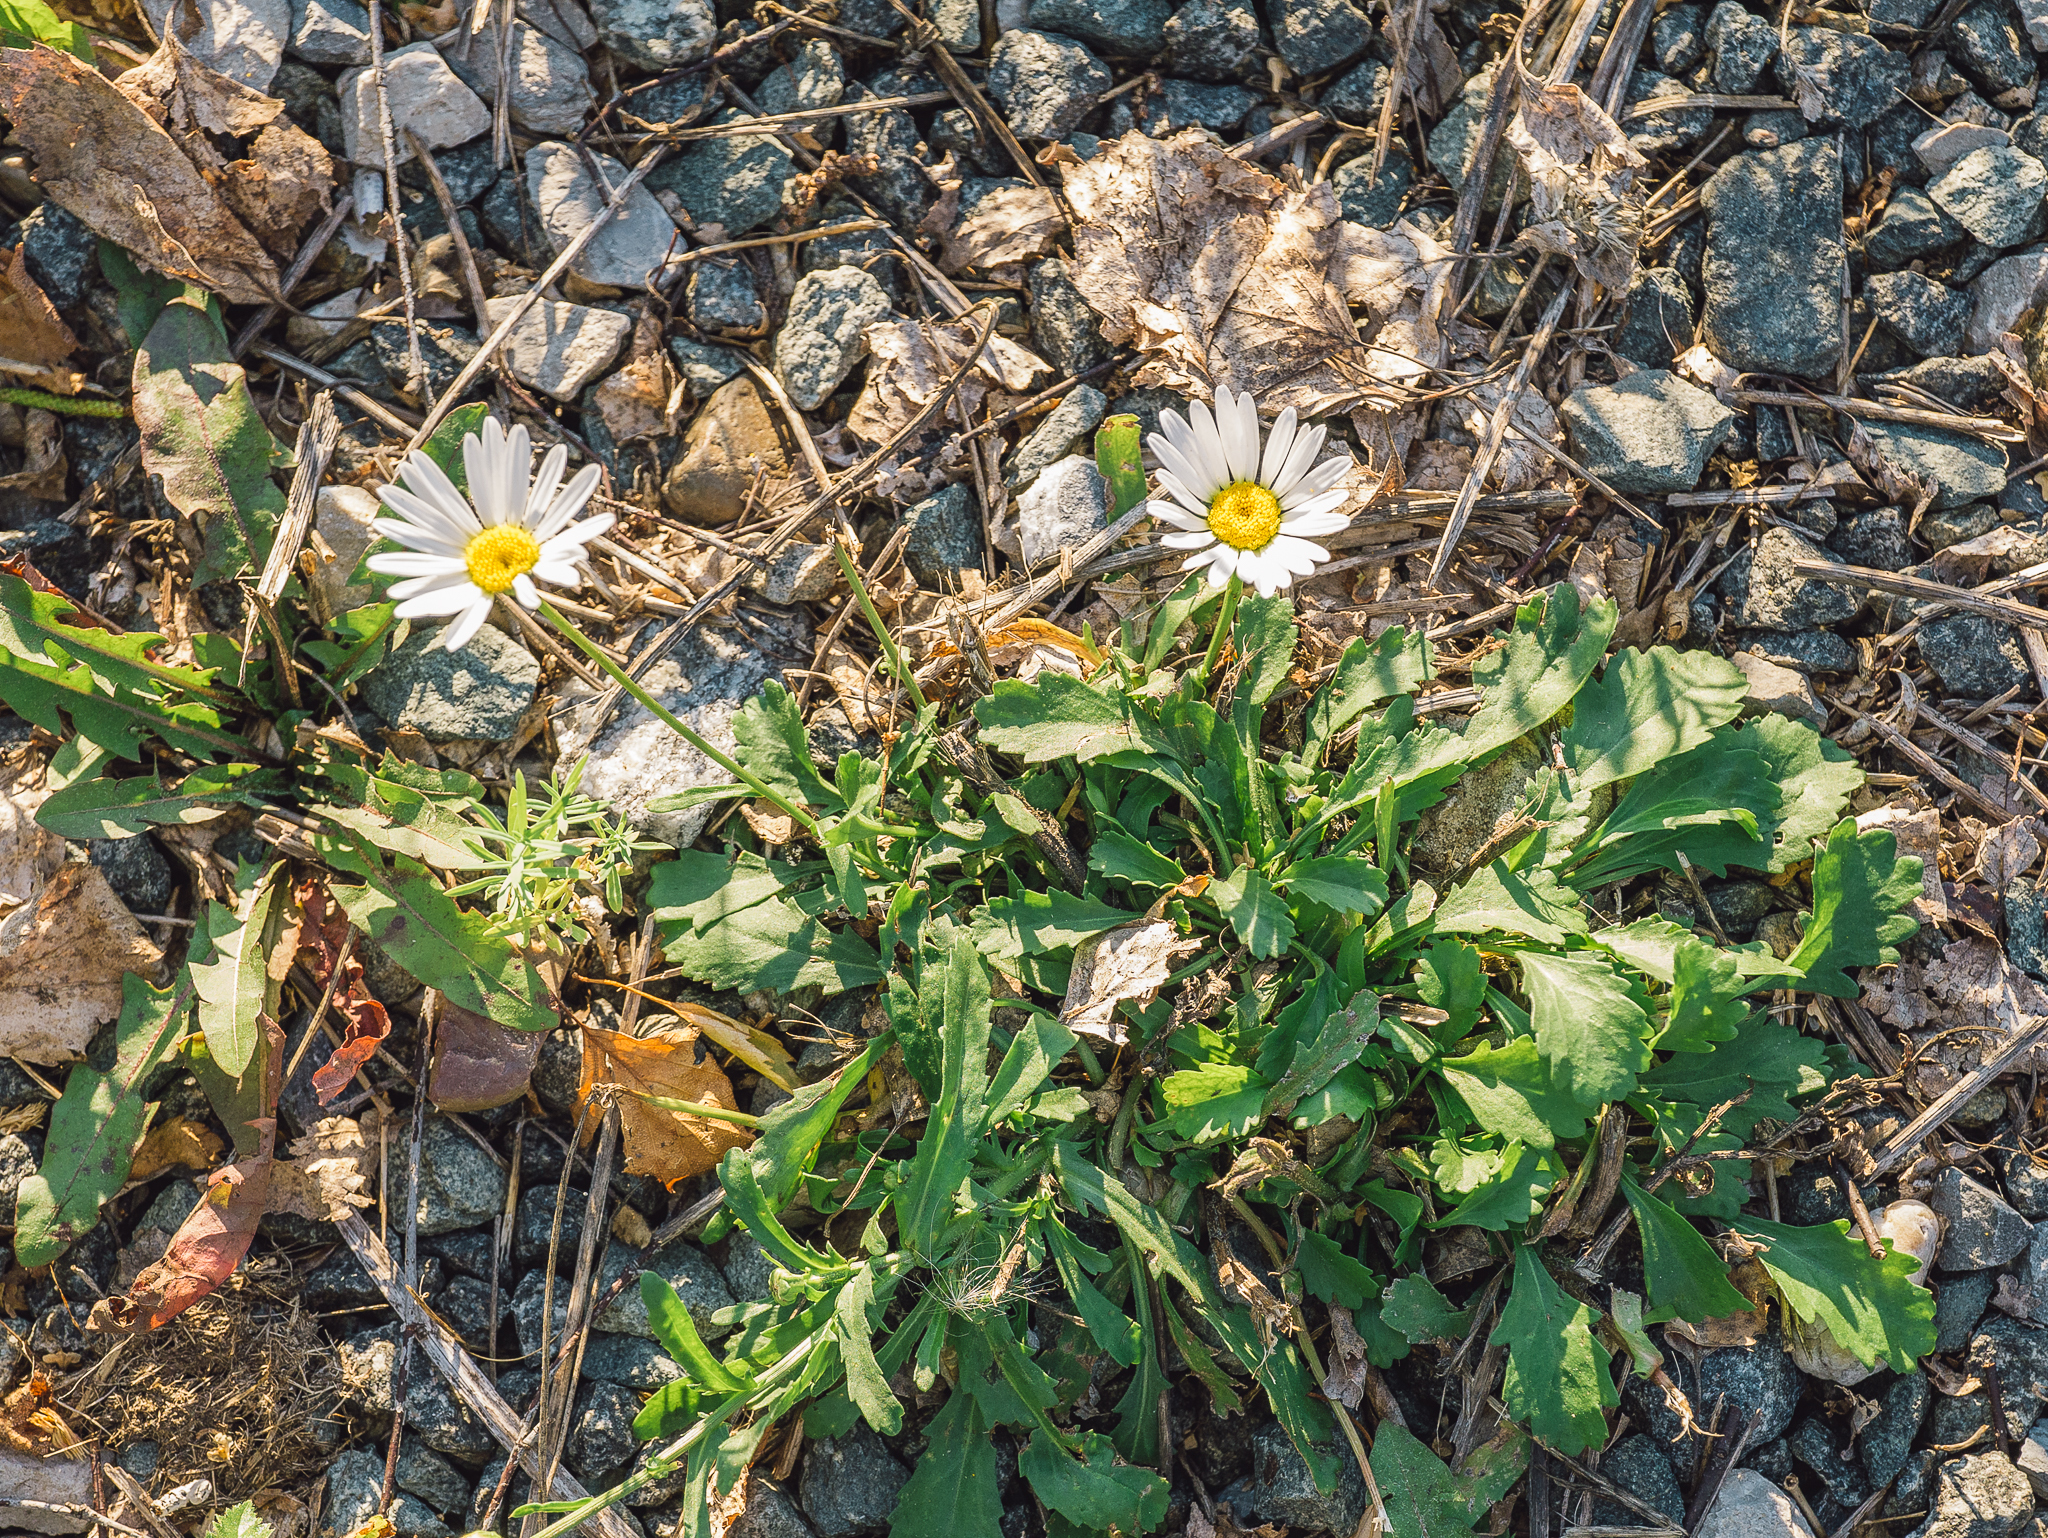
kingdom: Plantae
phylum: Tracheophyta
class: Magnoliopsida
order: Asterales
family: Asteraceae
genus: Leucanthemum
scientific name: Leucanthemum vulgare
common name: Oxeye daisy
